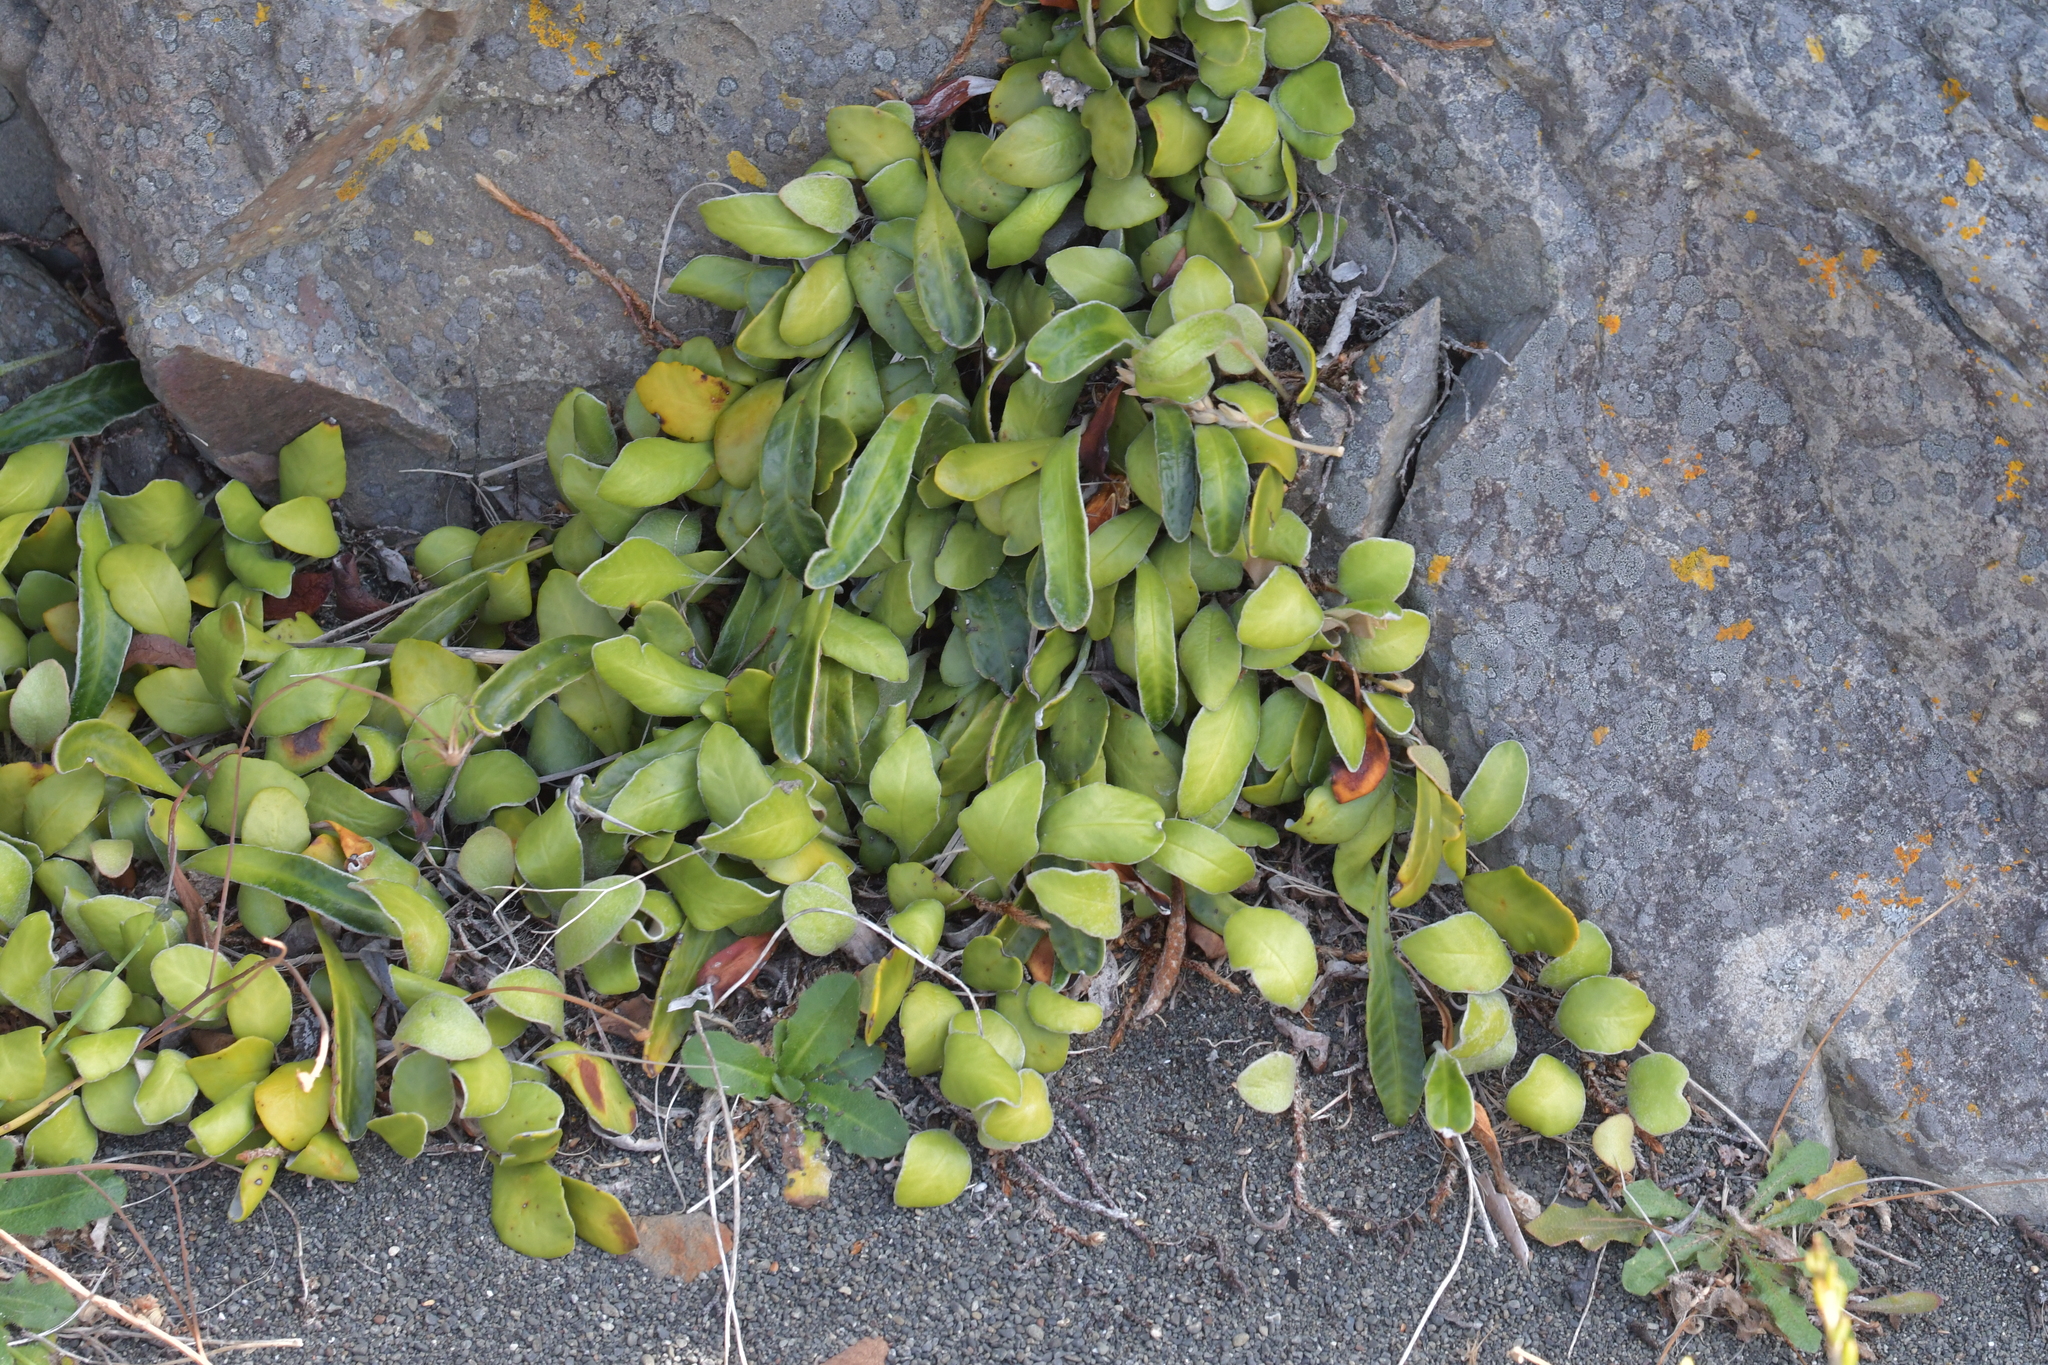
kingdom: Plantae
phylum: Tracheophyta
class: Polypodiopsida
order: Polypodiales
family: Polypodiaceae
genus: Pyrrosia
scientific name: Pyrrosia eleagnifolia
